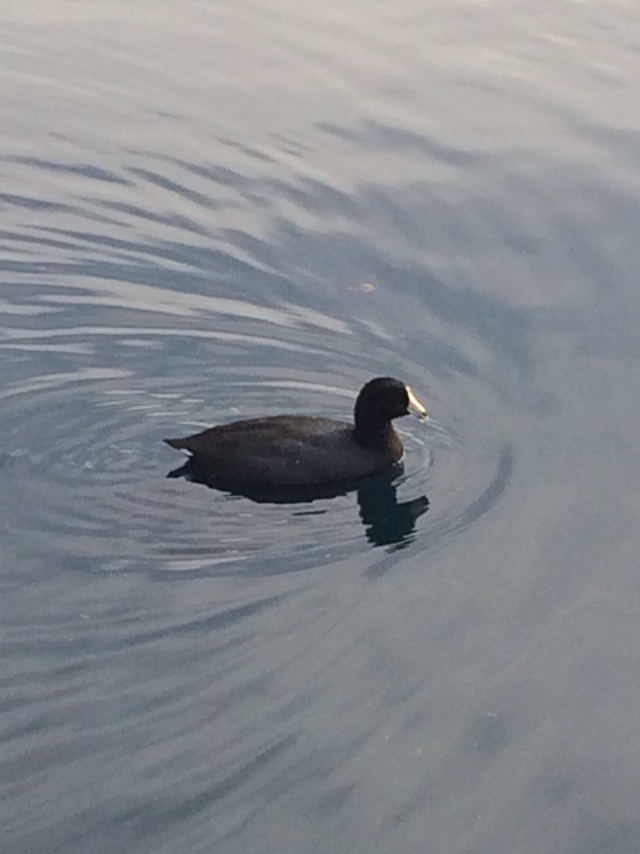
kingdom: Animalia
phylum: Chordata
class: Aves
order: Gruiformes
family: Rallidae
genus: Fulica
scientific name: Fulica americana
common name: American coot
